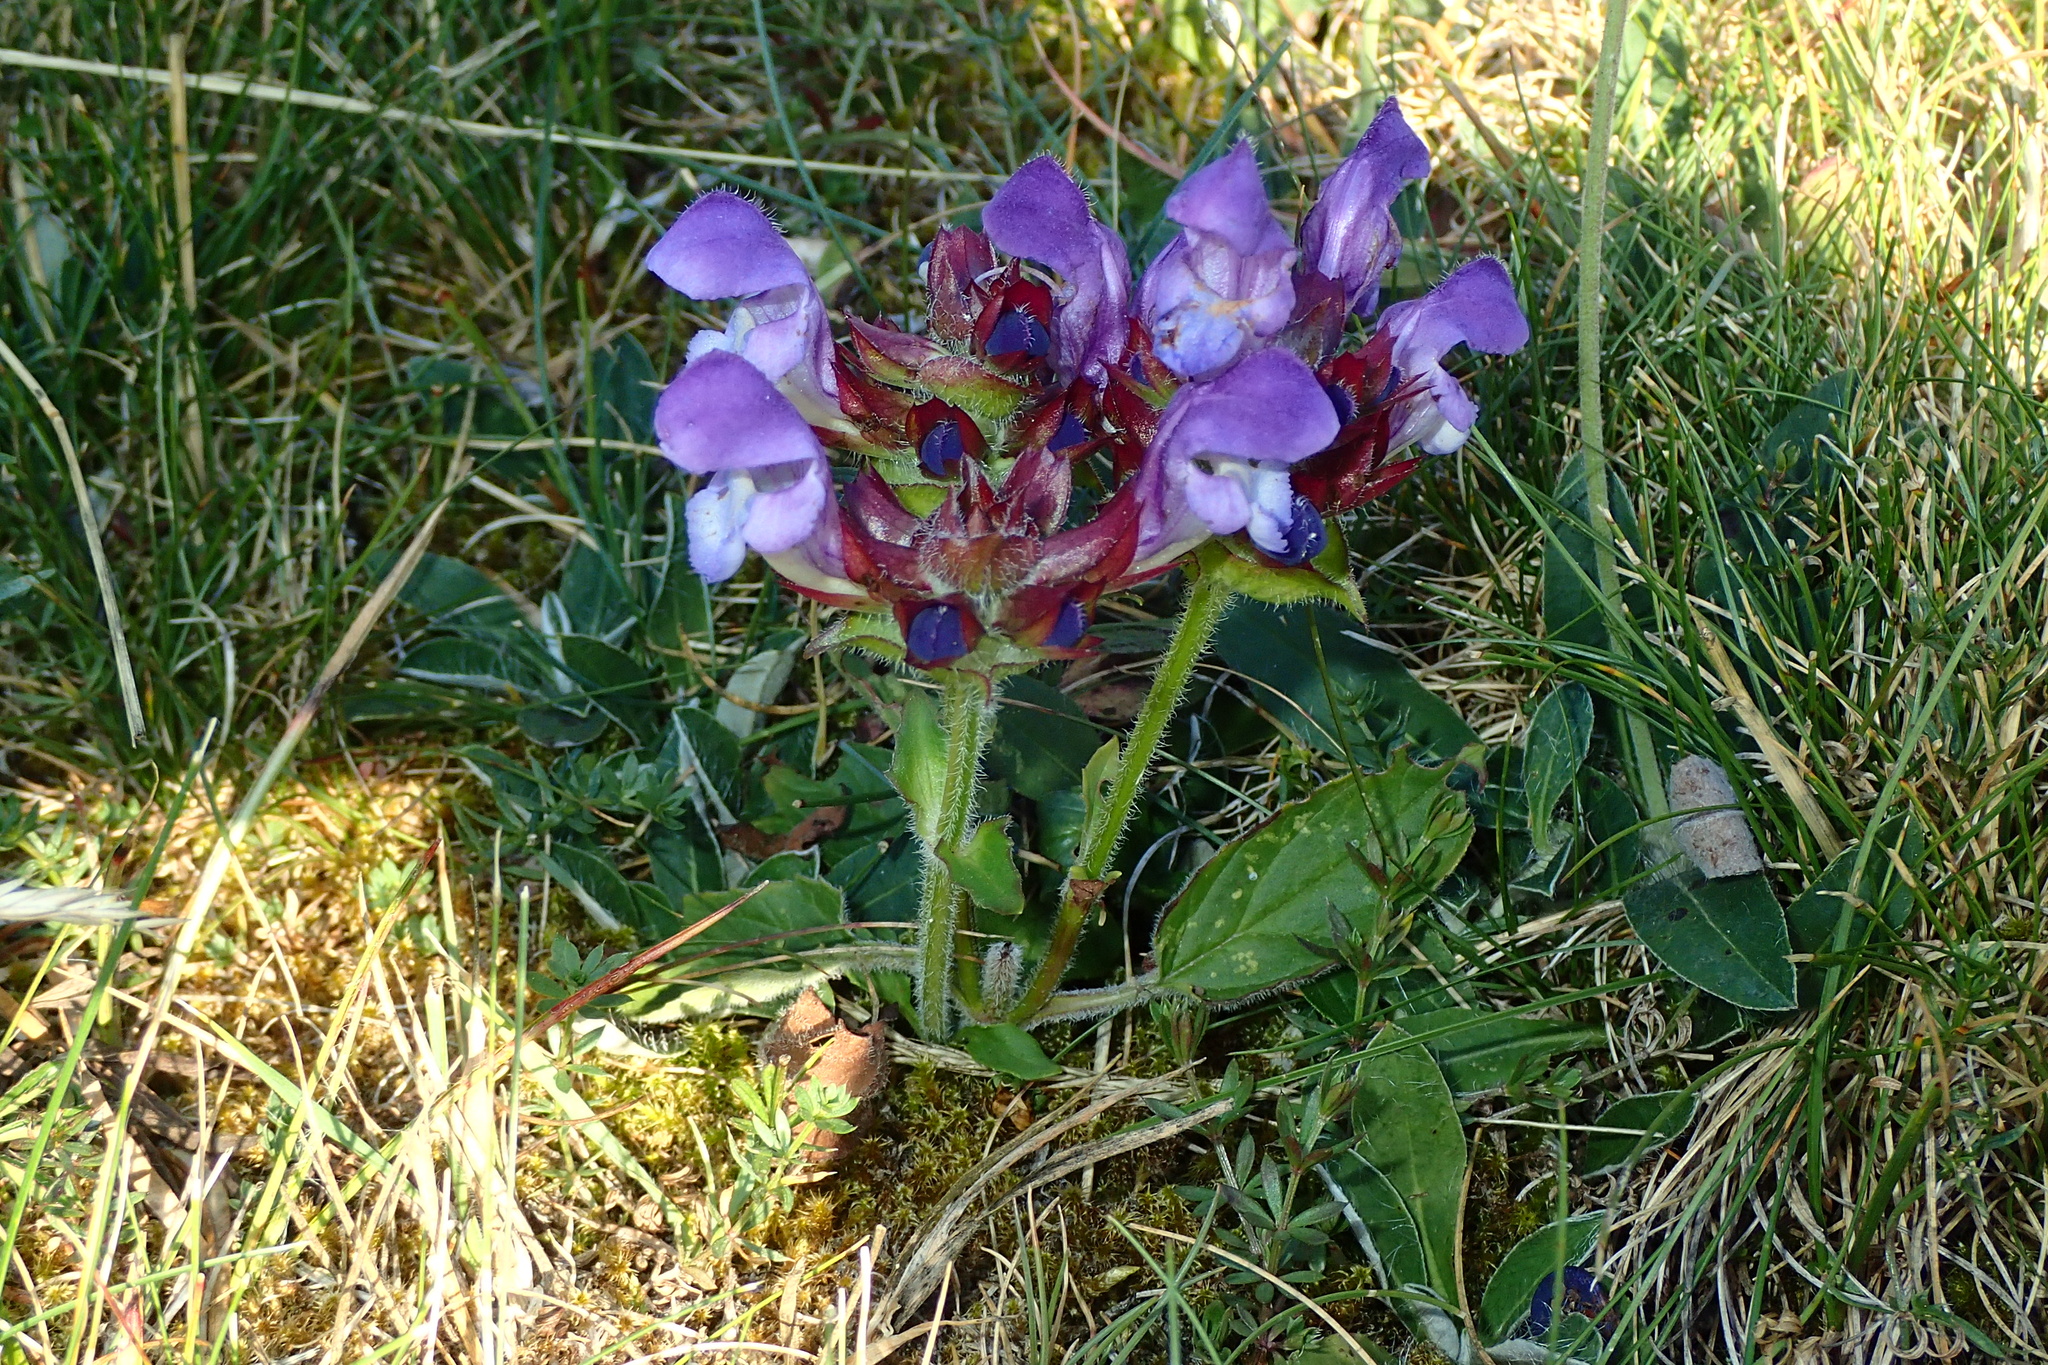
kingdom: Plantae
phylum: Tracheophyta
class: Magnoliopsida
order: Lamiales
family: Lamiaceae
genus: Prunella
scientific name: Prunella grandiflora
